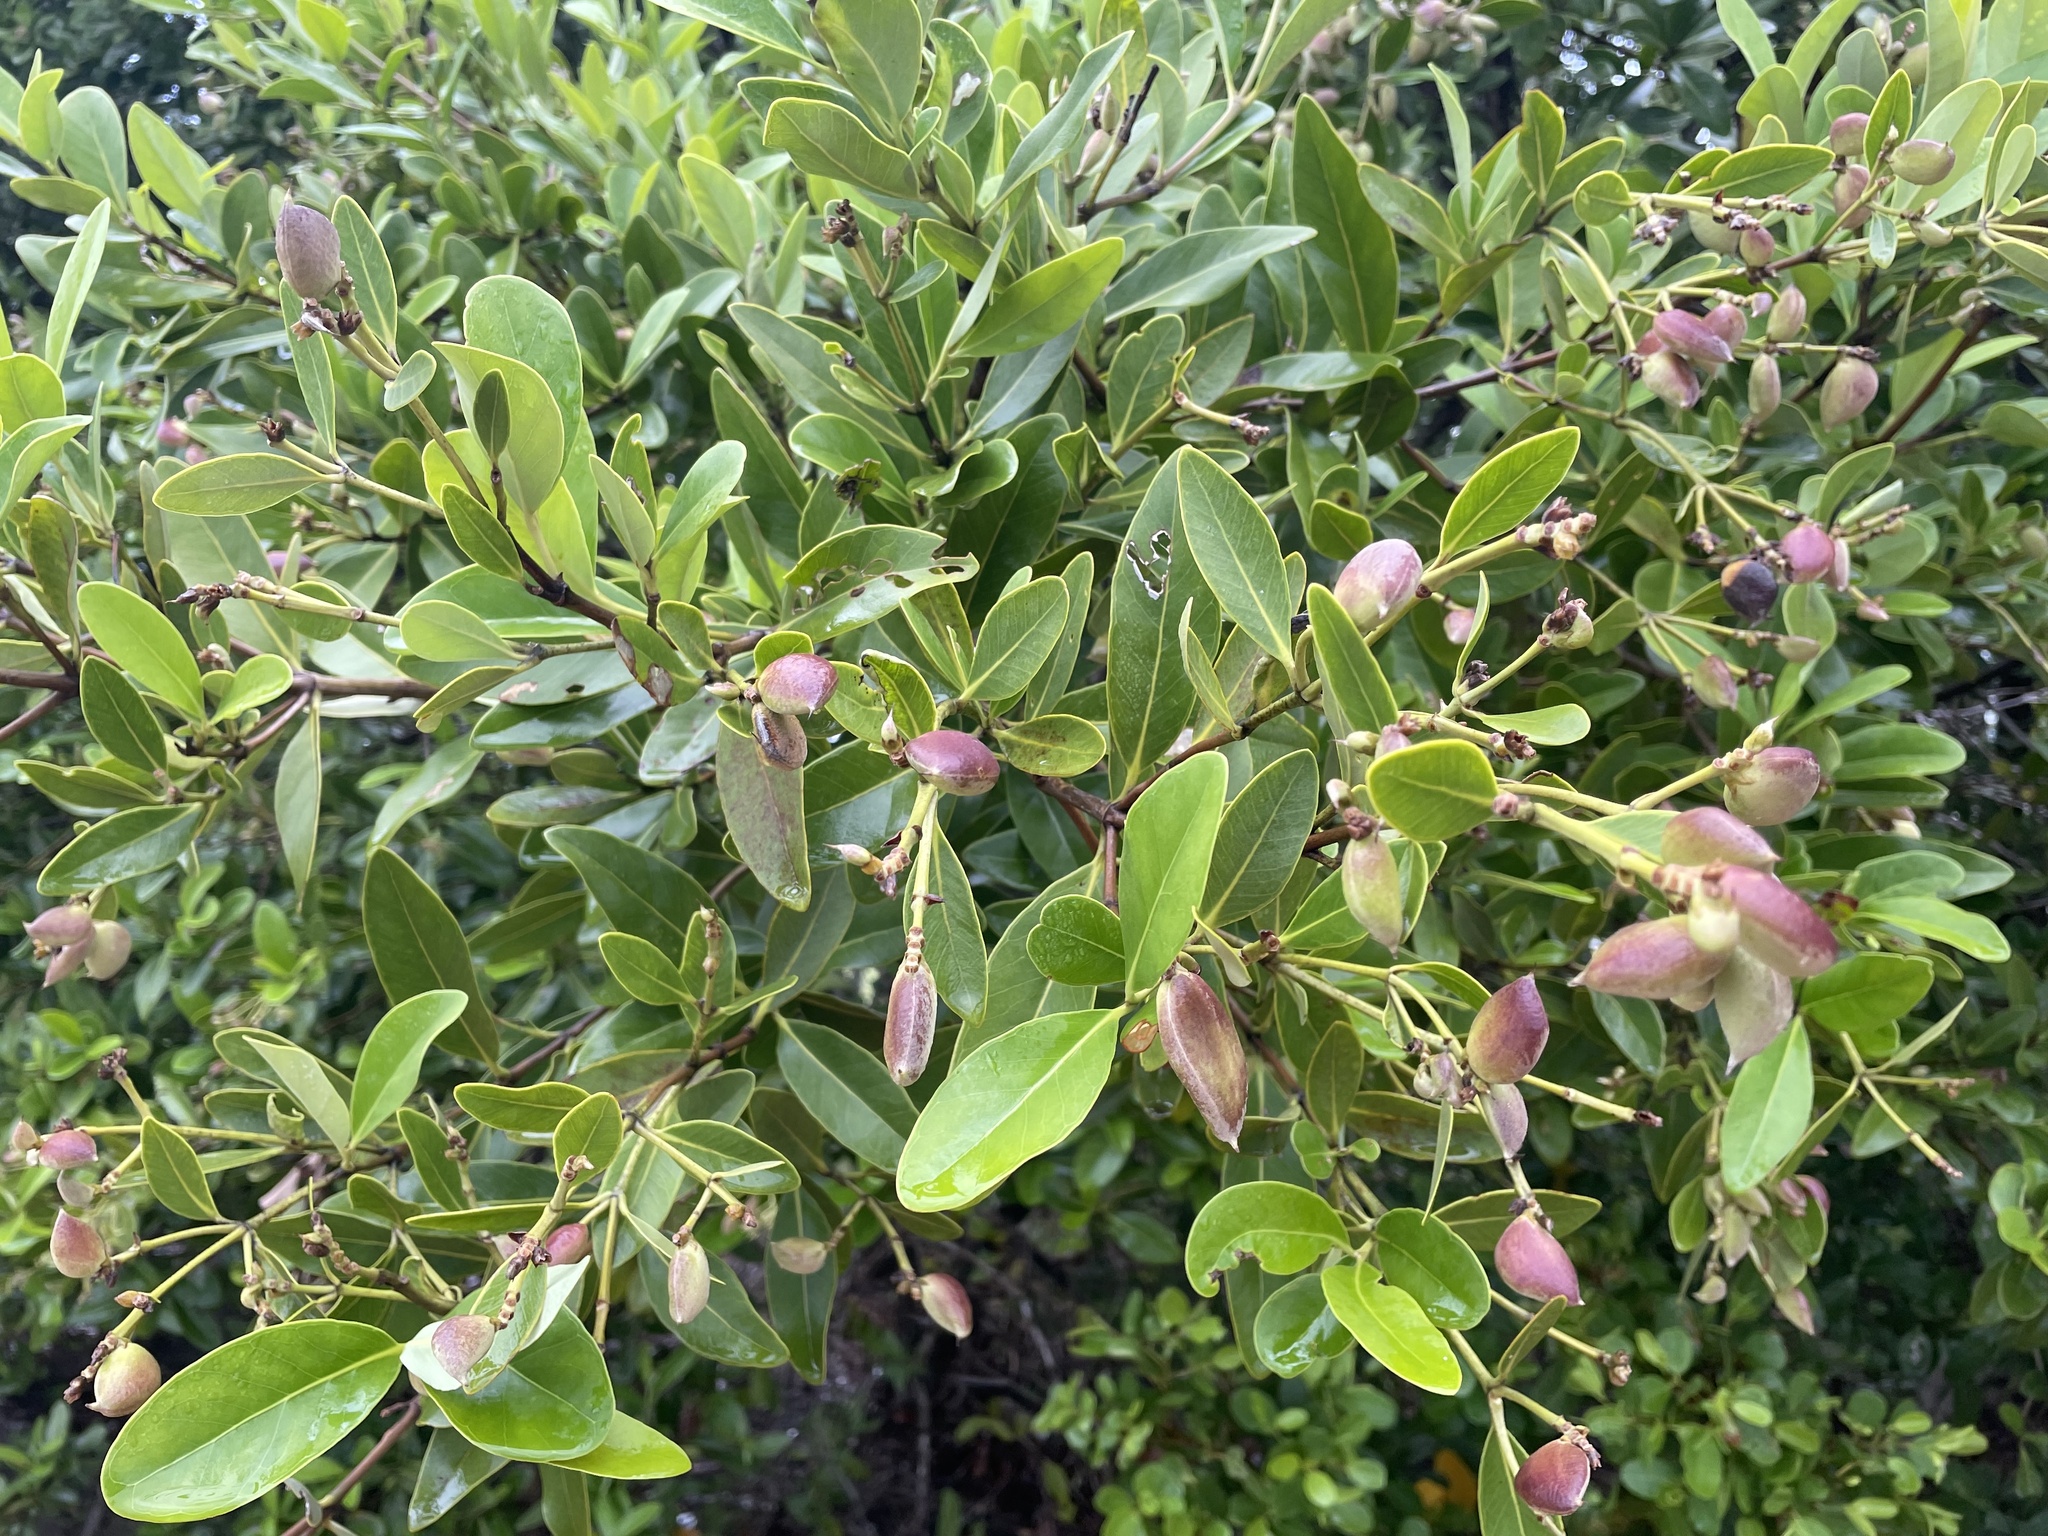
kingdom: Plantae
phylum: Tracheophyta
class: Magnoliopsida
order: Lamiales
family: Acanthaceae
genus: Avicennia
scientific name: Avicennia germinans
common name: Black mangrove
